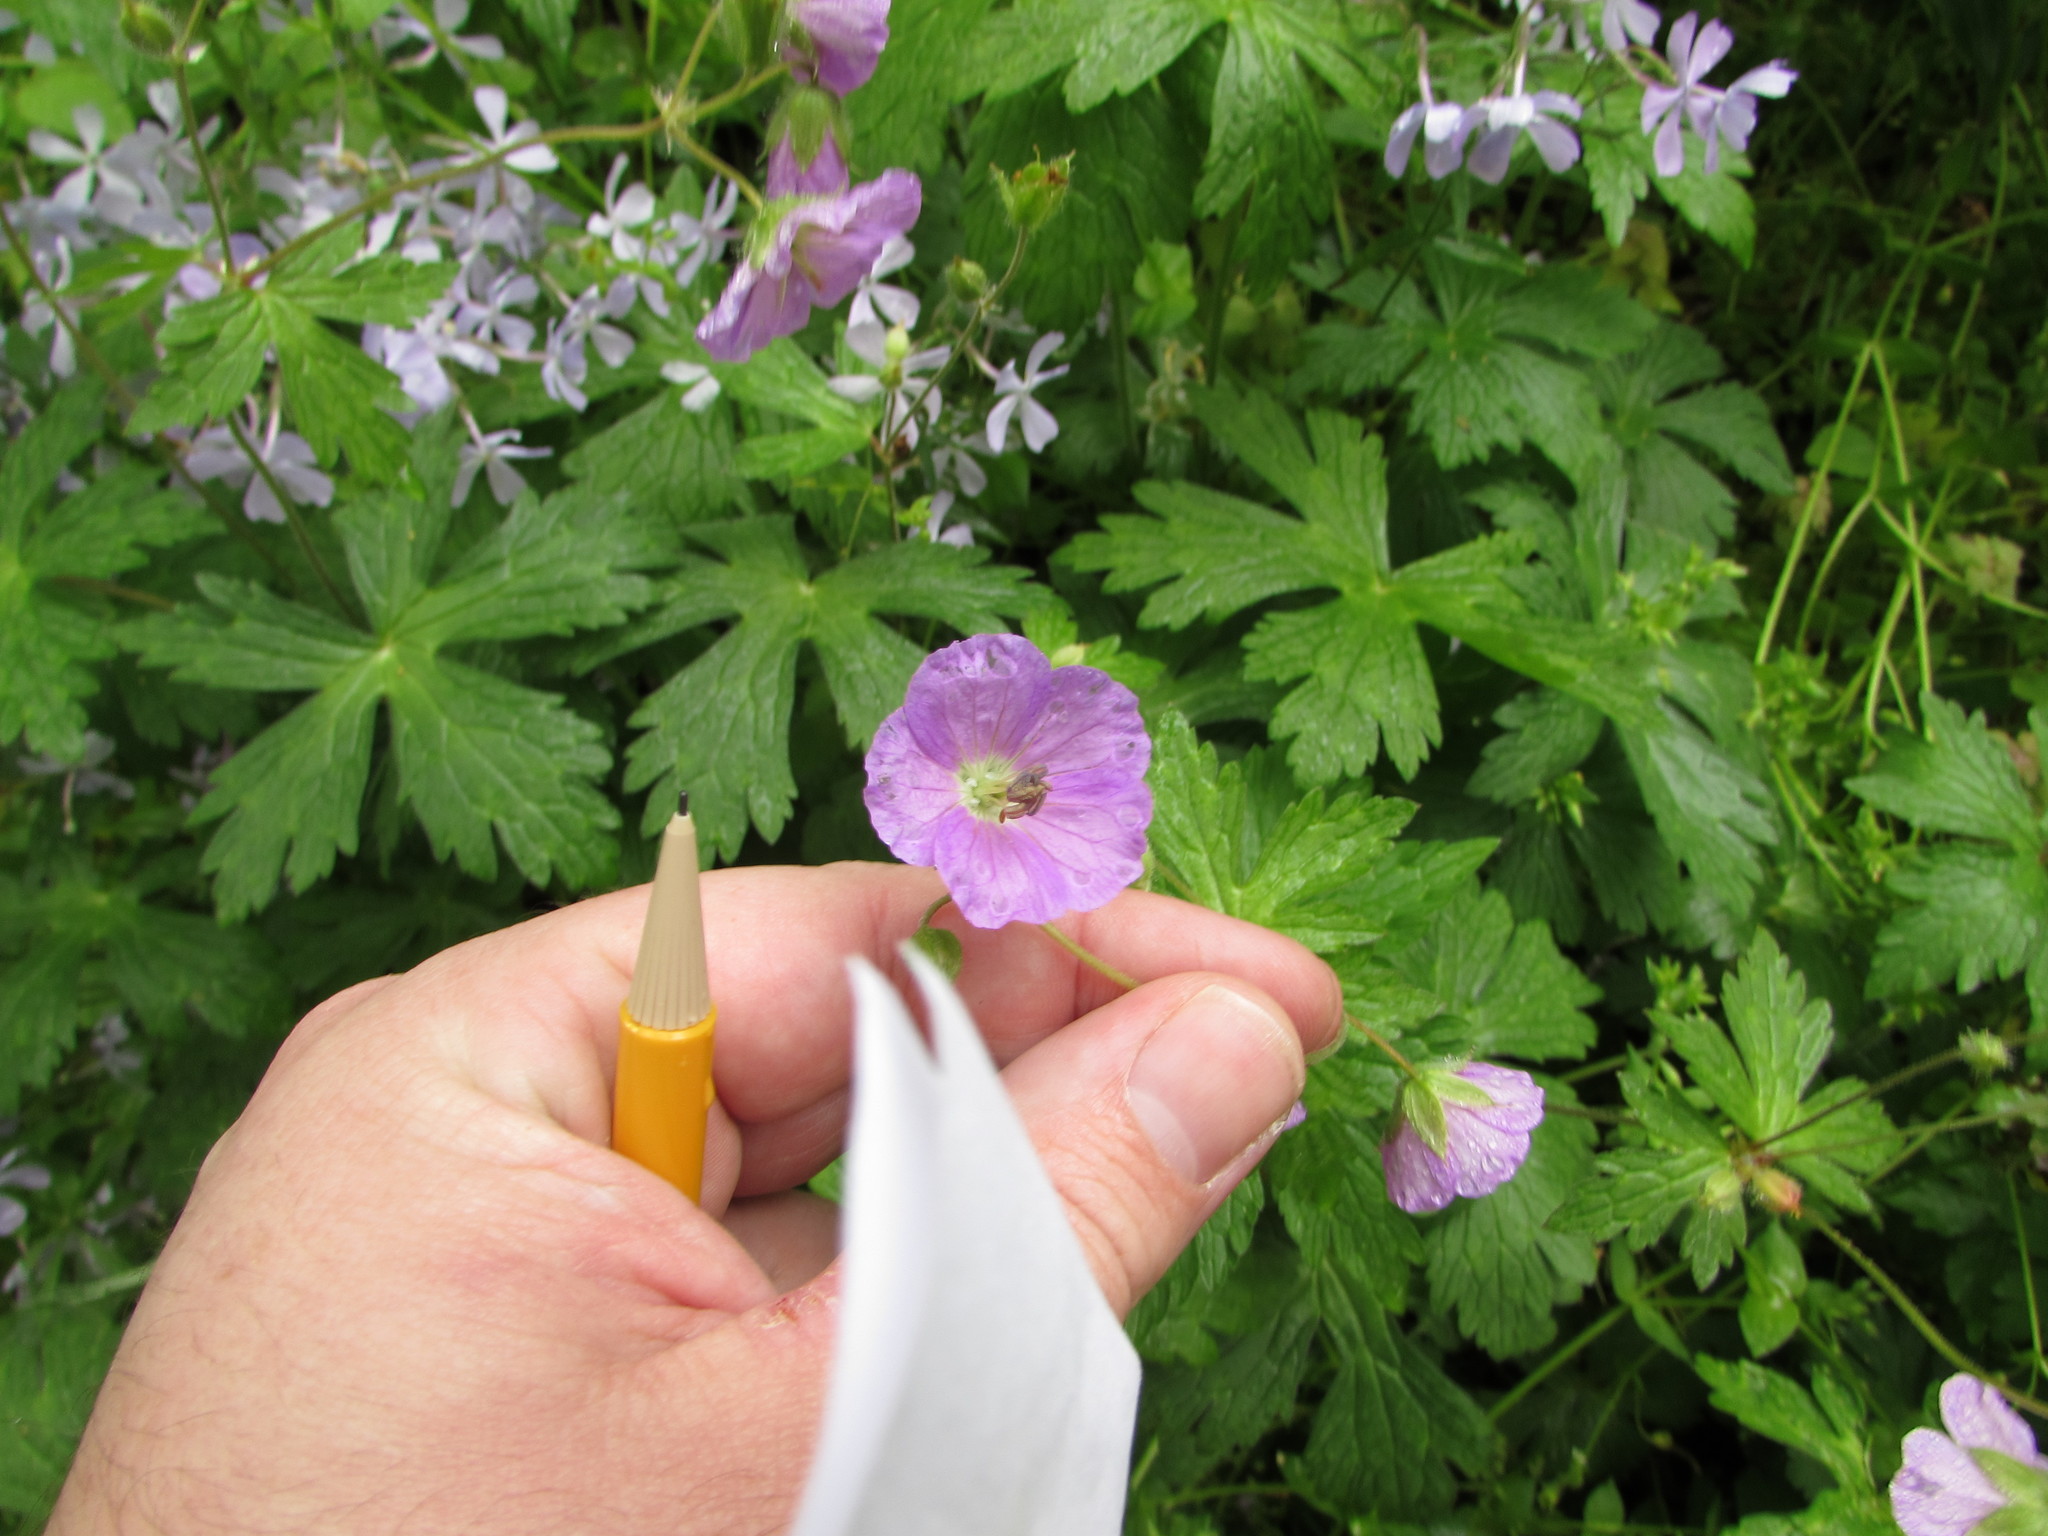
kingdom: Plantae
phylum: Tracheophyta
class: Magnoliopsida
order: Geraniales
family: Geraniaceae
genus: Geranium
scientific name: Geranium maculatum
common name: Spotted geranium
